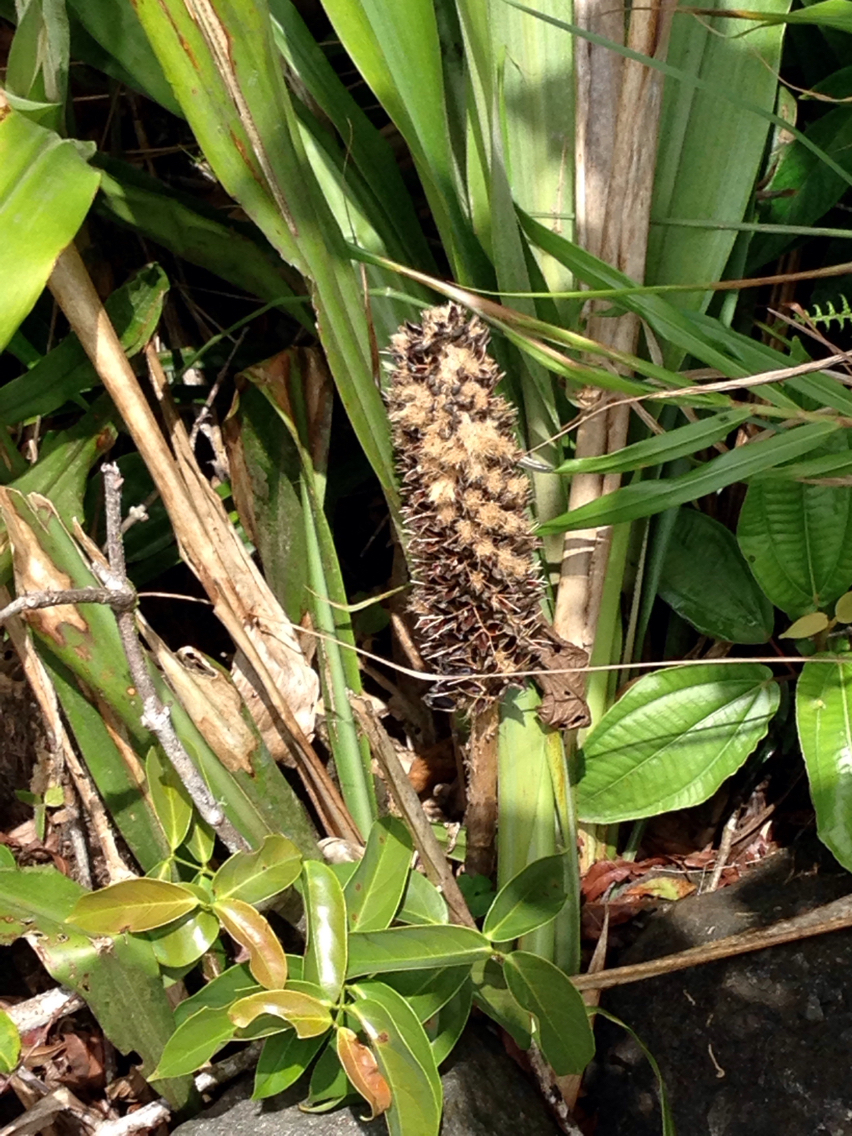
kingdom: Plantae
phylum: Tracheophyta
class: Liliopsida
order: Poales
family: Bromeliaceae
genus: Pitcairnia
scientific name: Pitcairnia funkiae
